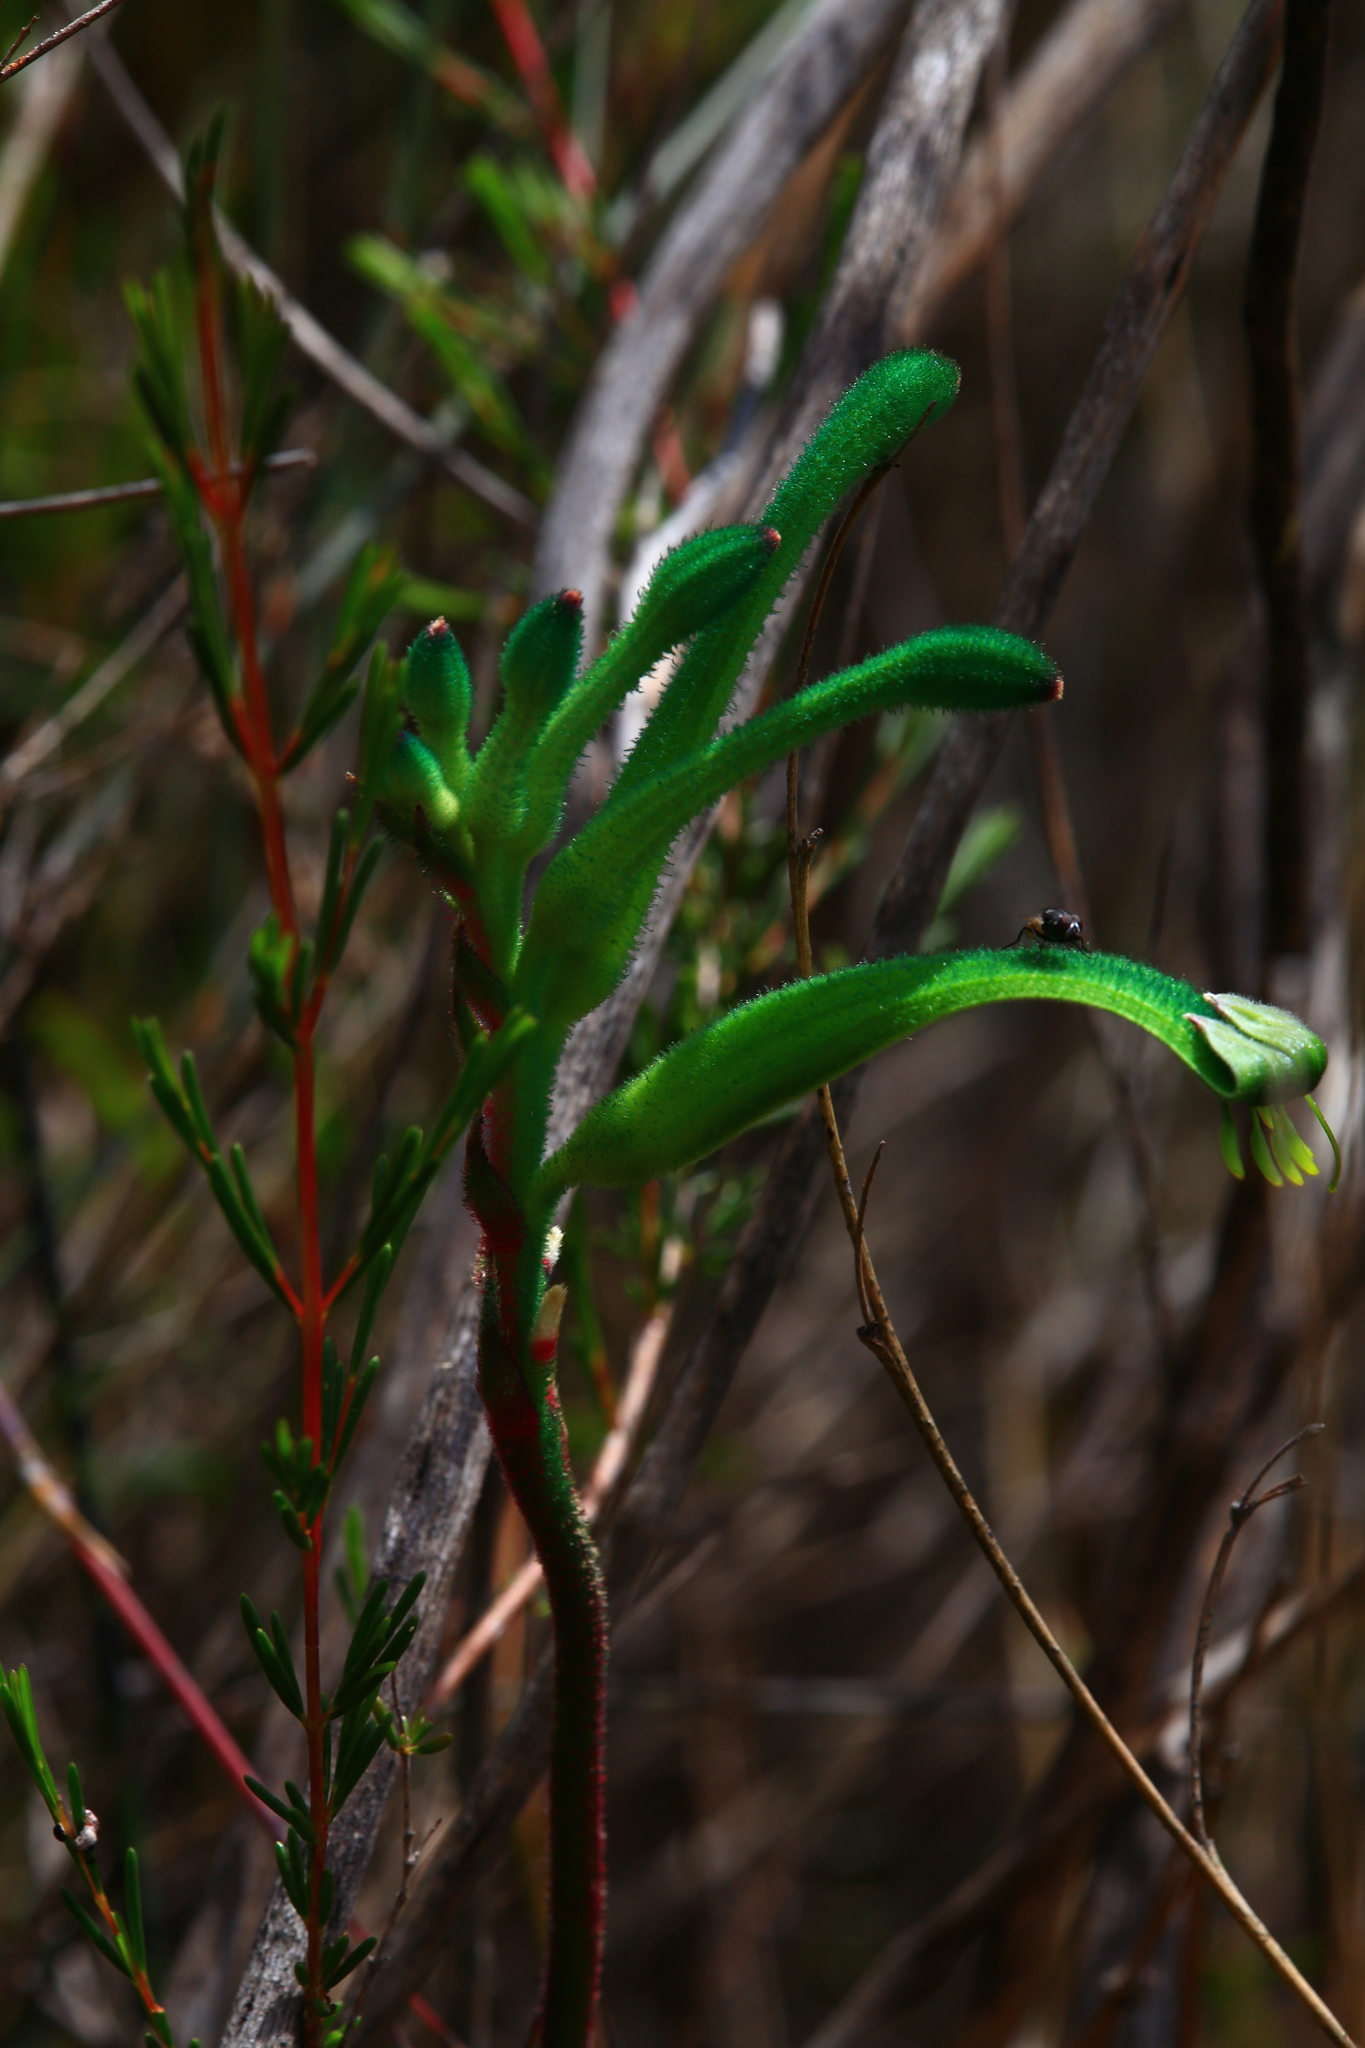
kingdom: Plantae
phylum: Tracheophyta
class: Liliopsida
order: Commelinales
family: Haemodoraceae
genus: Anigozanthos
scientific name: Anigozanthos viridis
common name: Green kangaroo-paw
